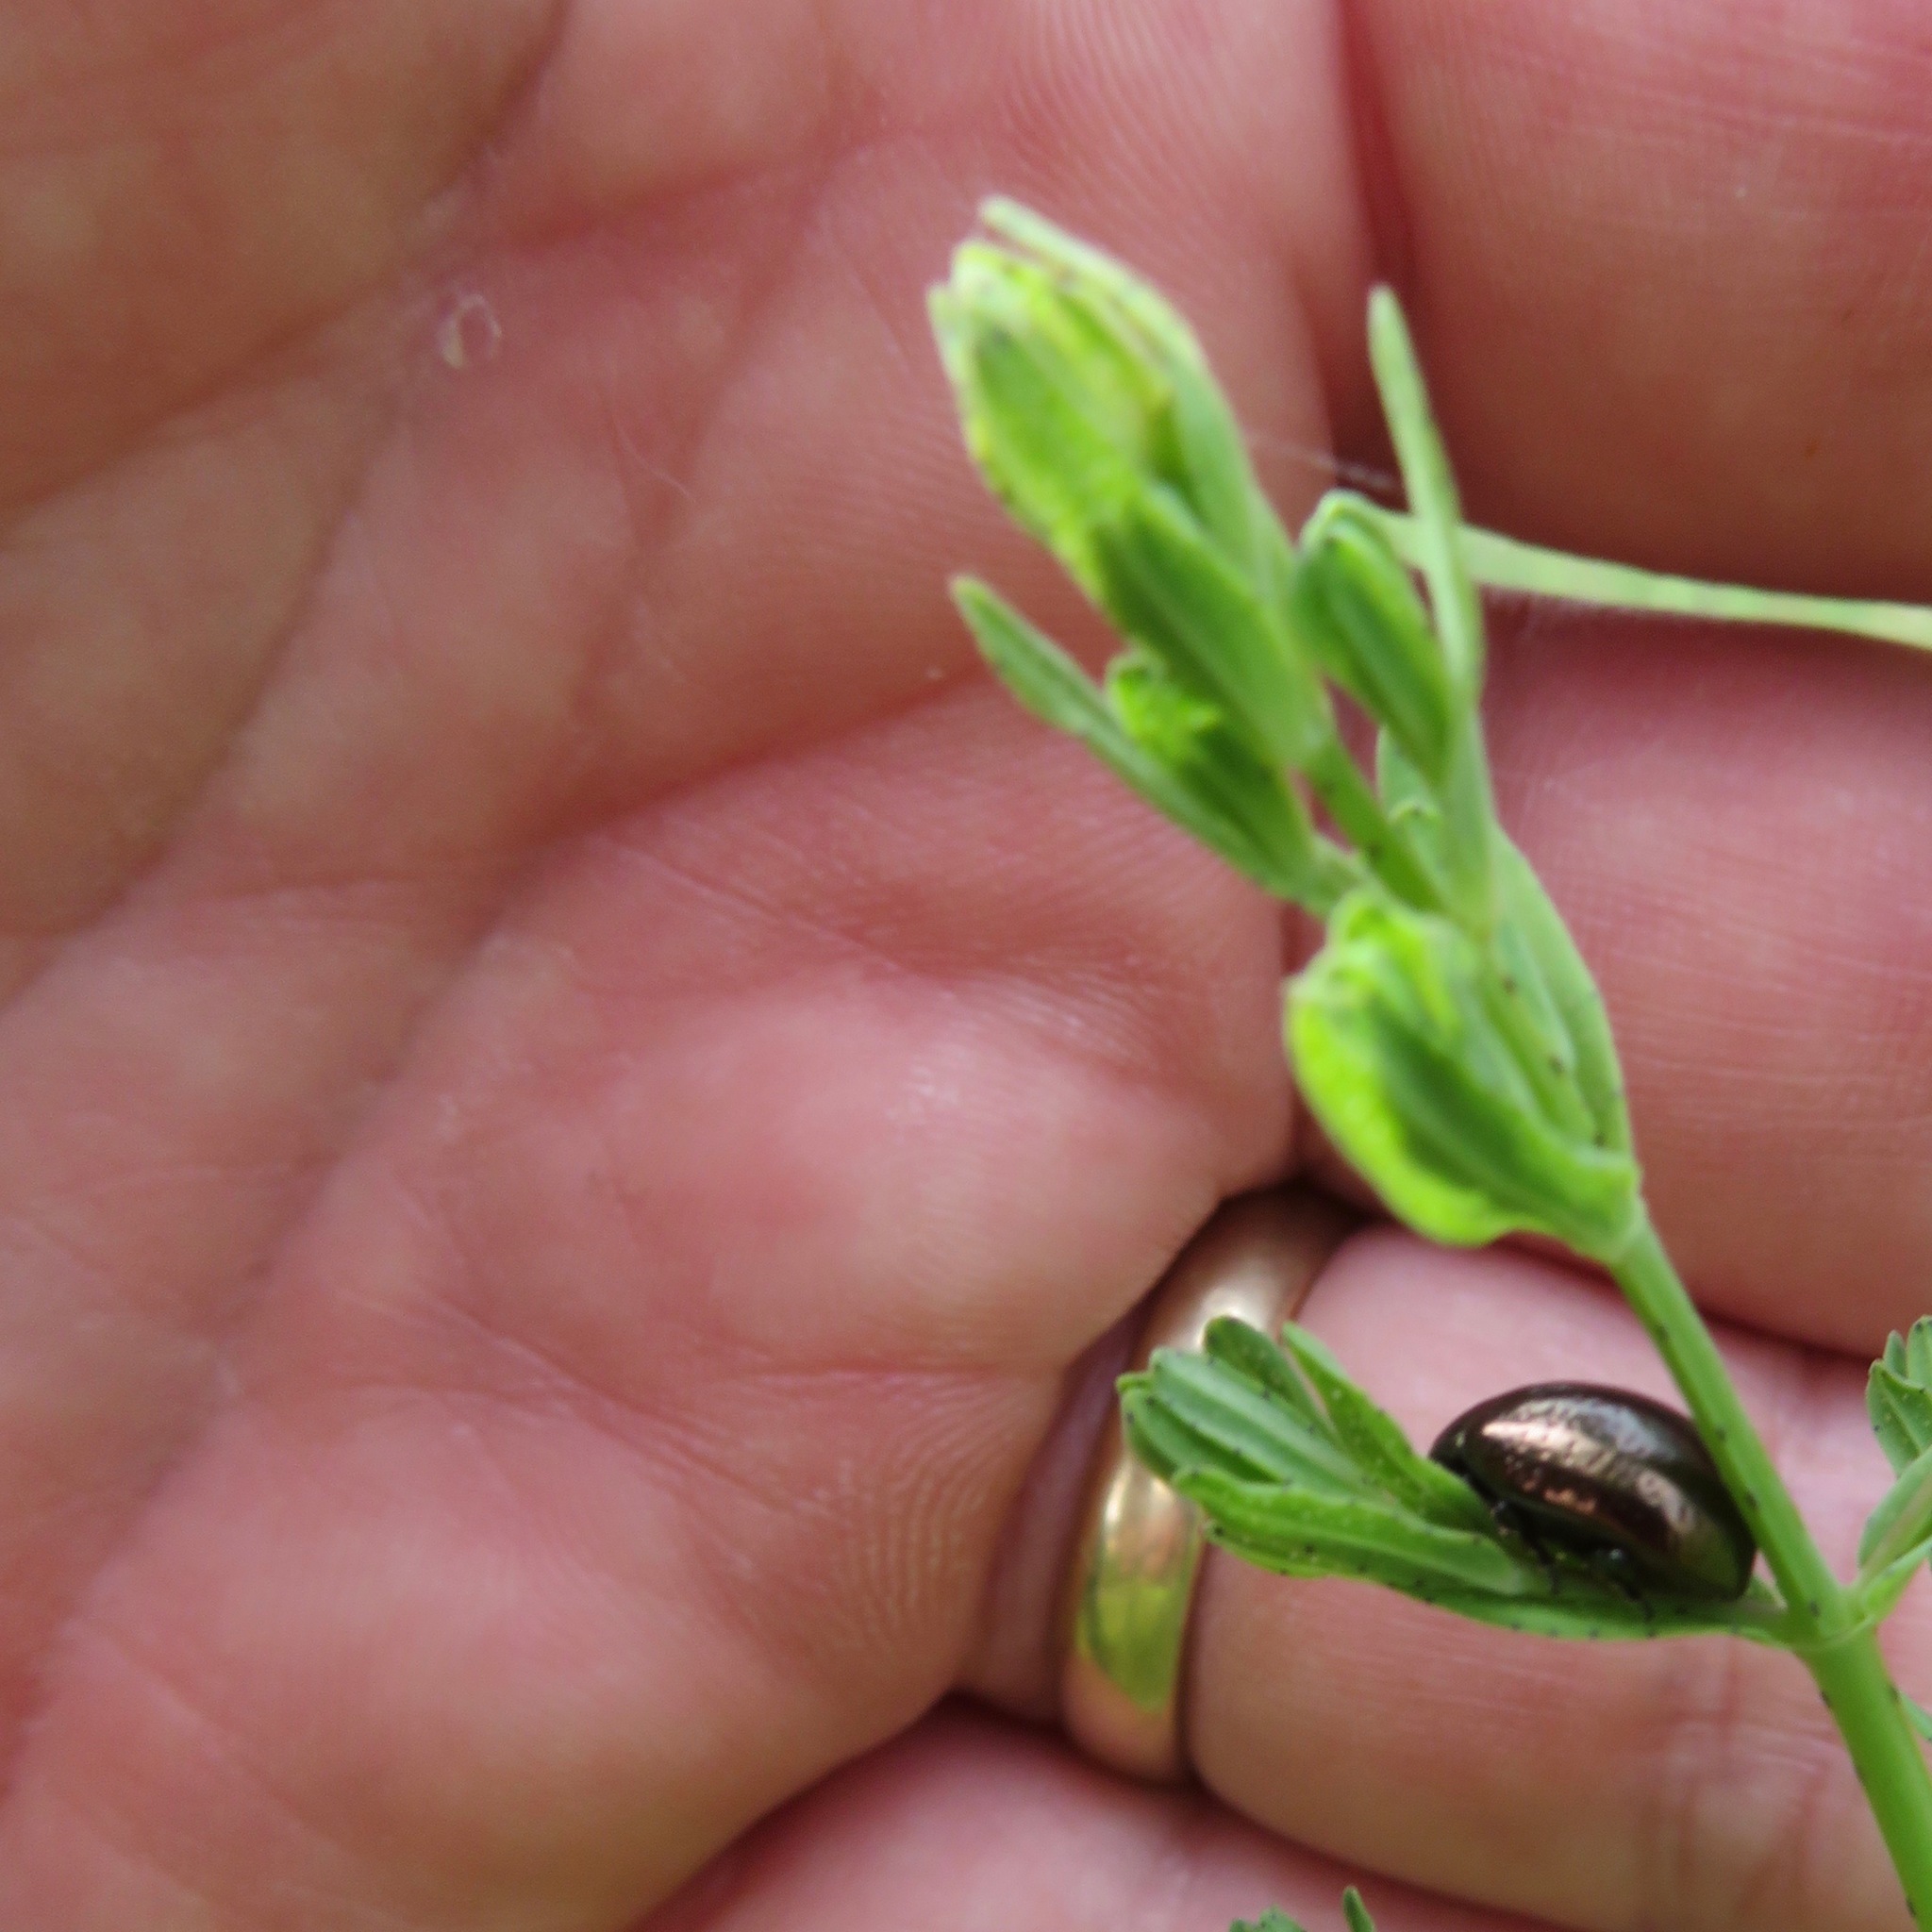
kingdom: Animalia
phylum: Arthropoda
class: Insecta
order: Coleoptera
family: Chrysomelidae
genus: Chrysolina
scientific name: Chrysolina hyperici
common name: St. johnswort beetle
